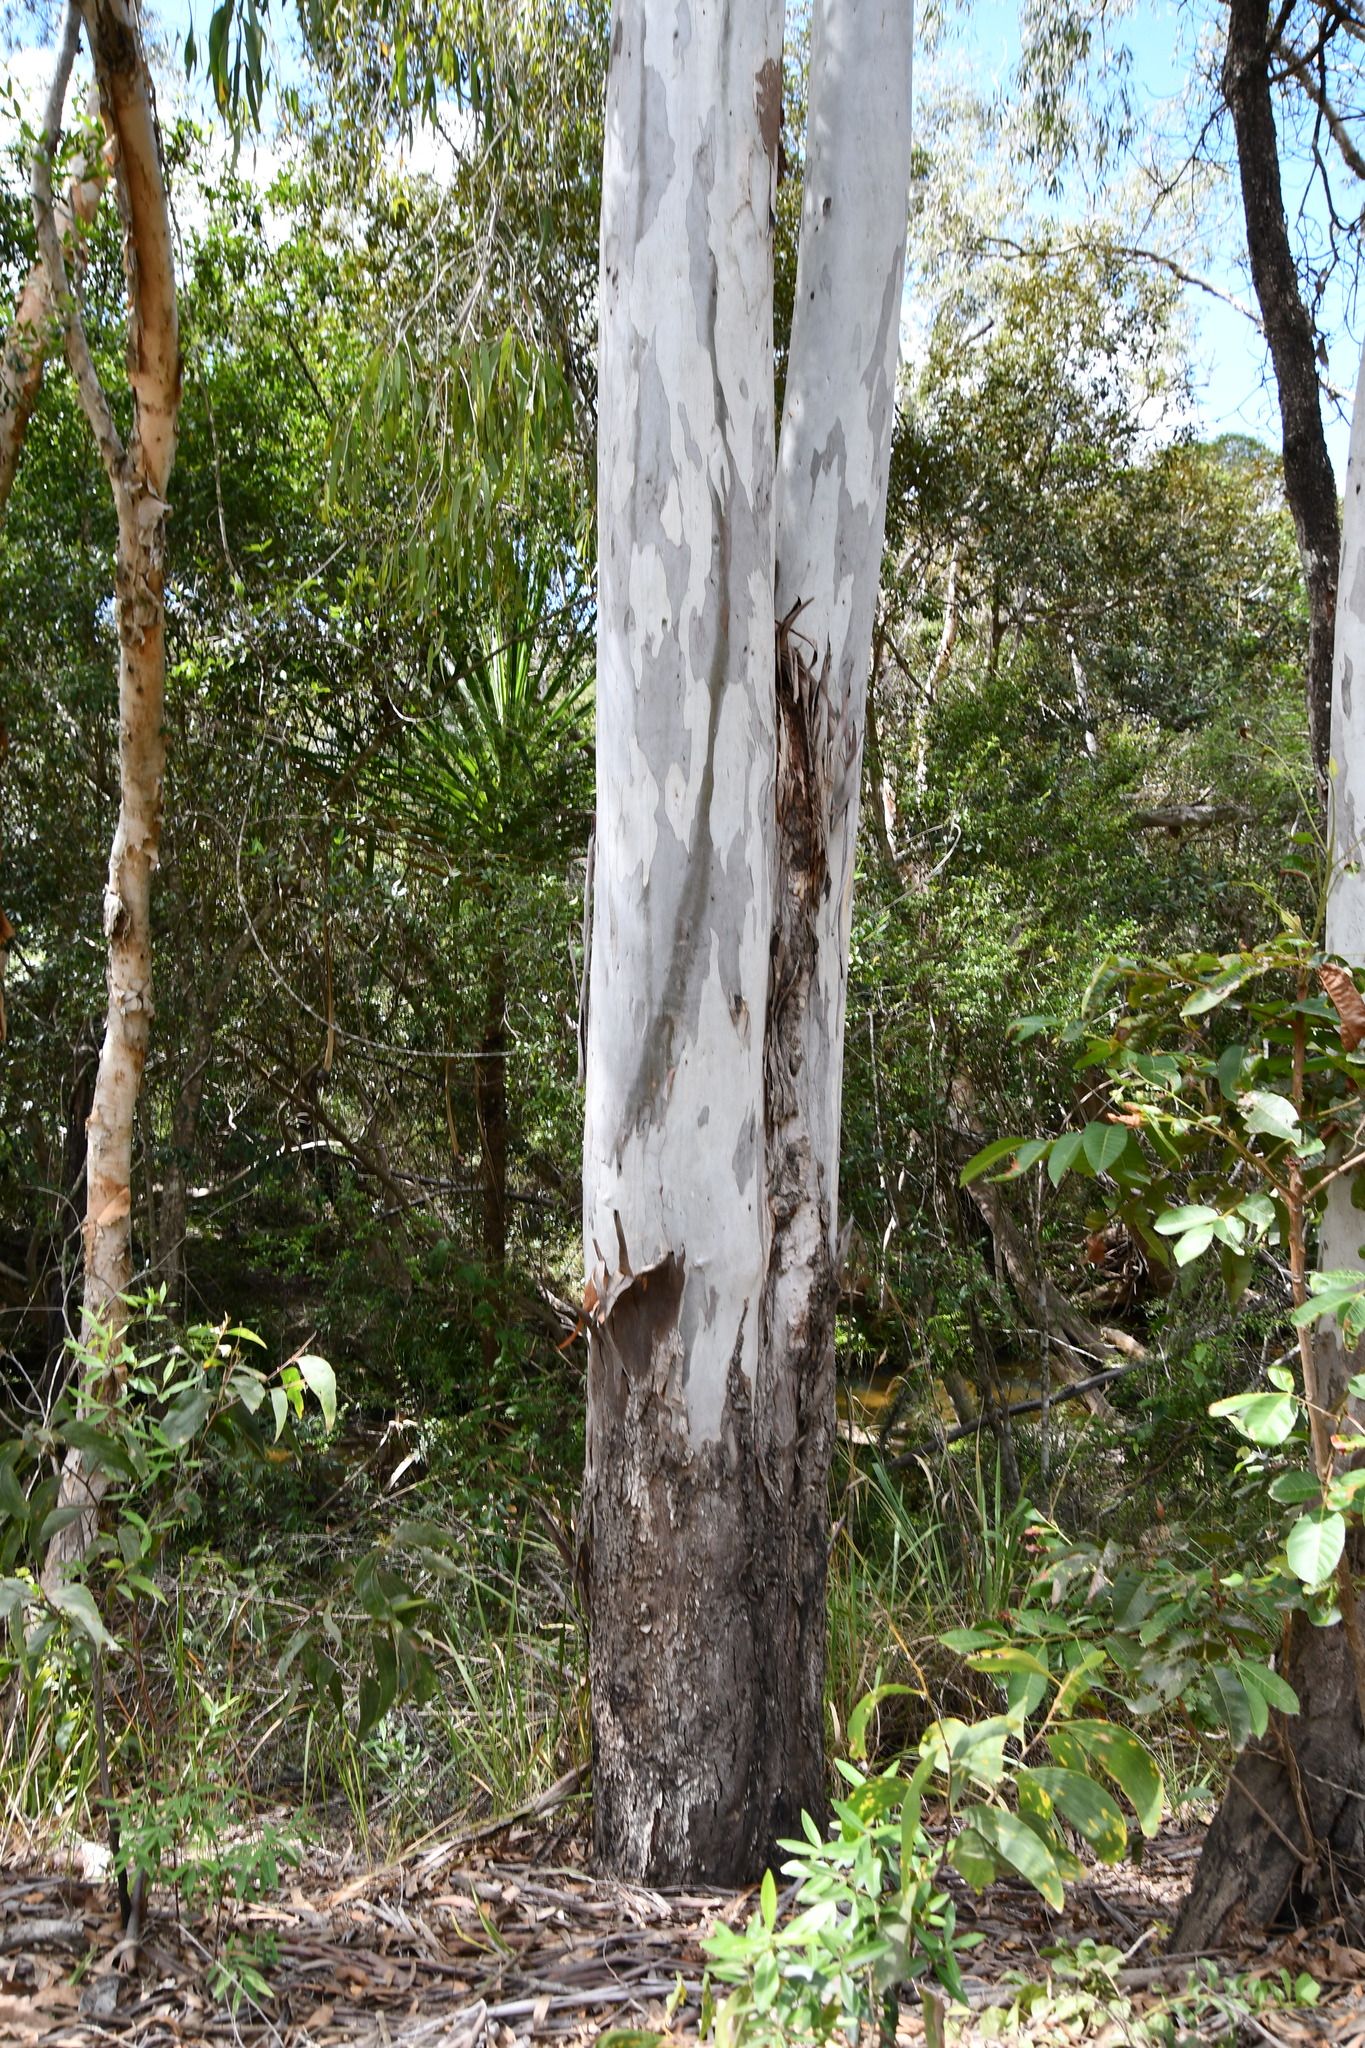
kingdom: Plantae
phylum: Tracheophyta
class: Magnoliopsida
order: Myrtales
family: Myrtaceae
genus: Eucalyptus
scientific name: Eucalyptus tereticornis
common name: Forest redgum
